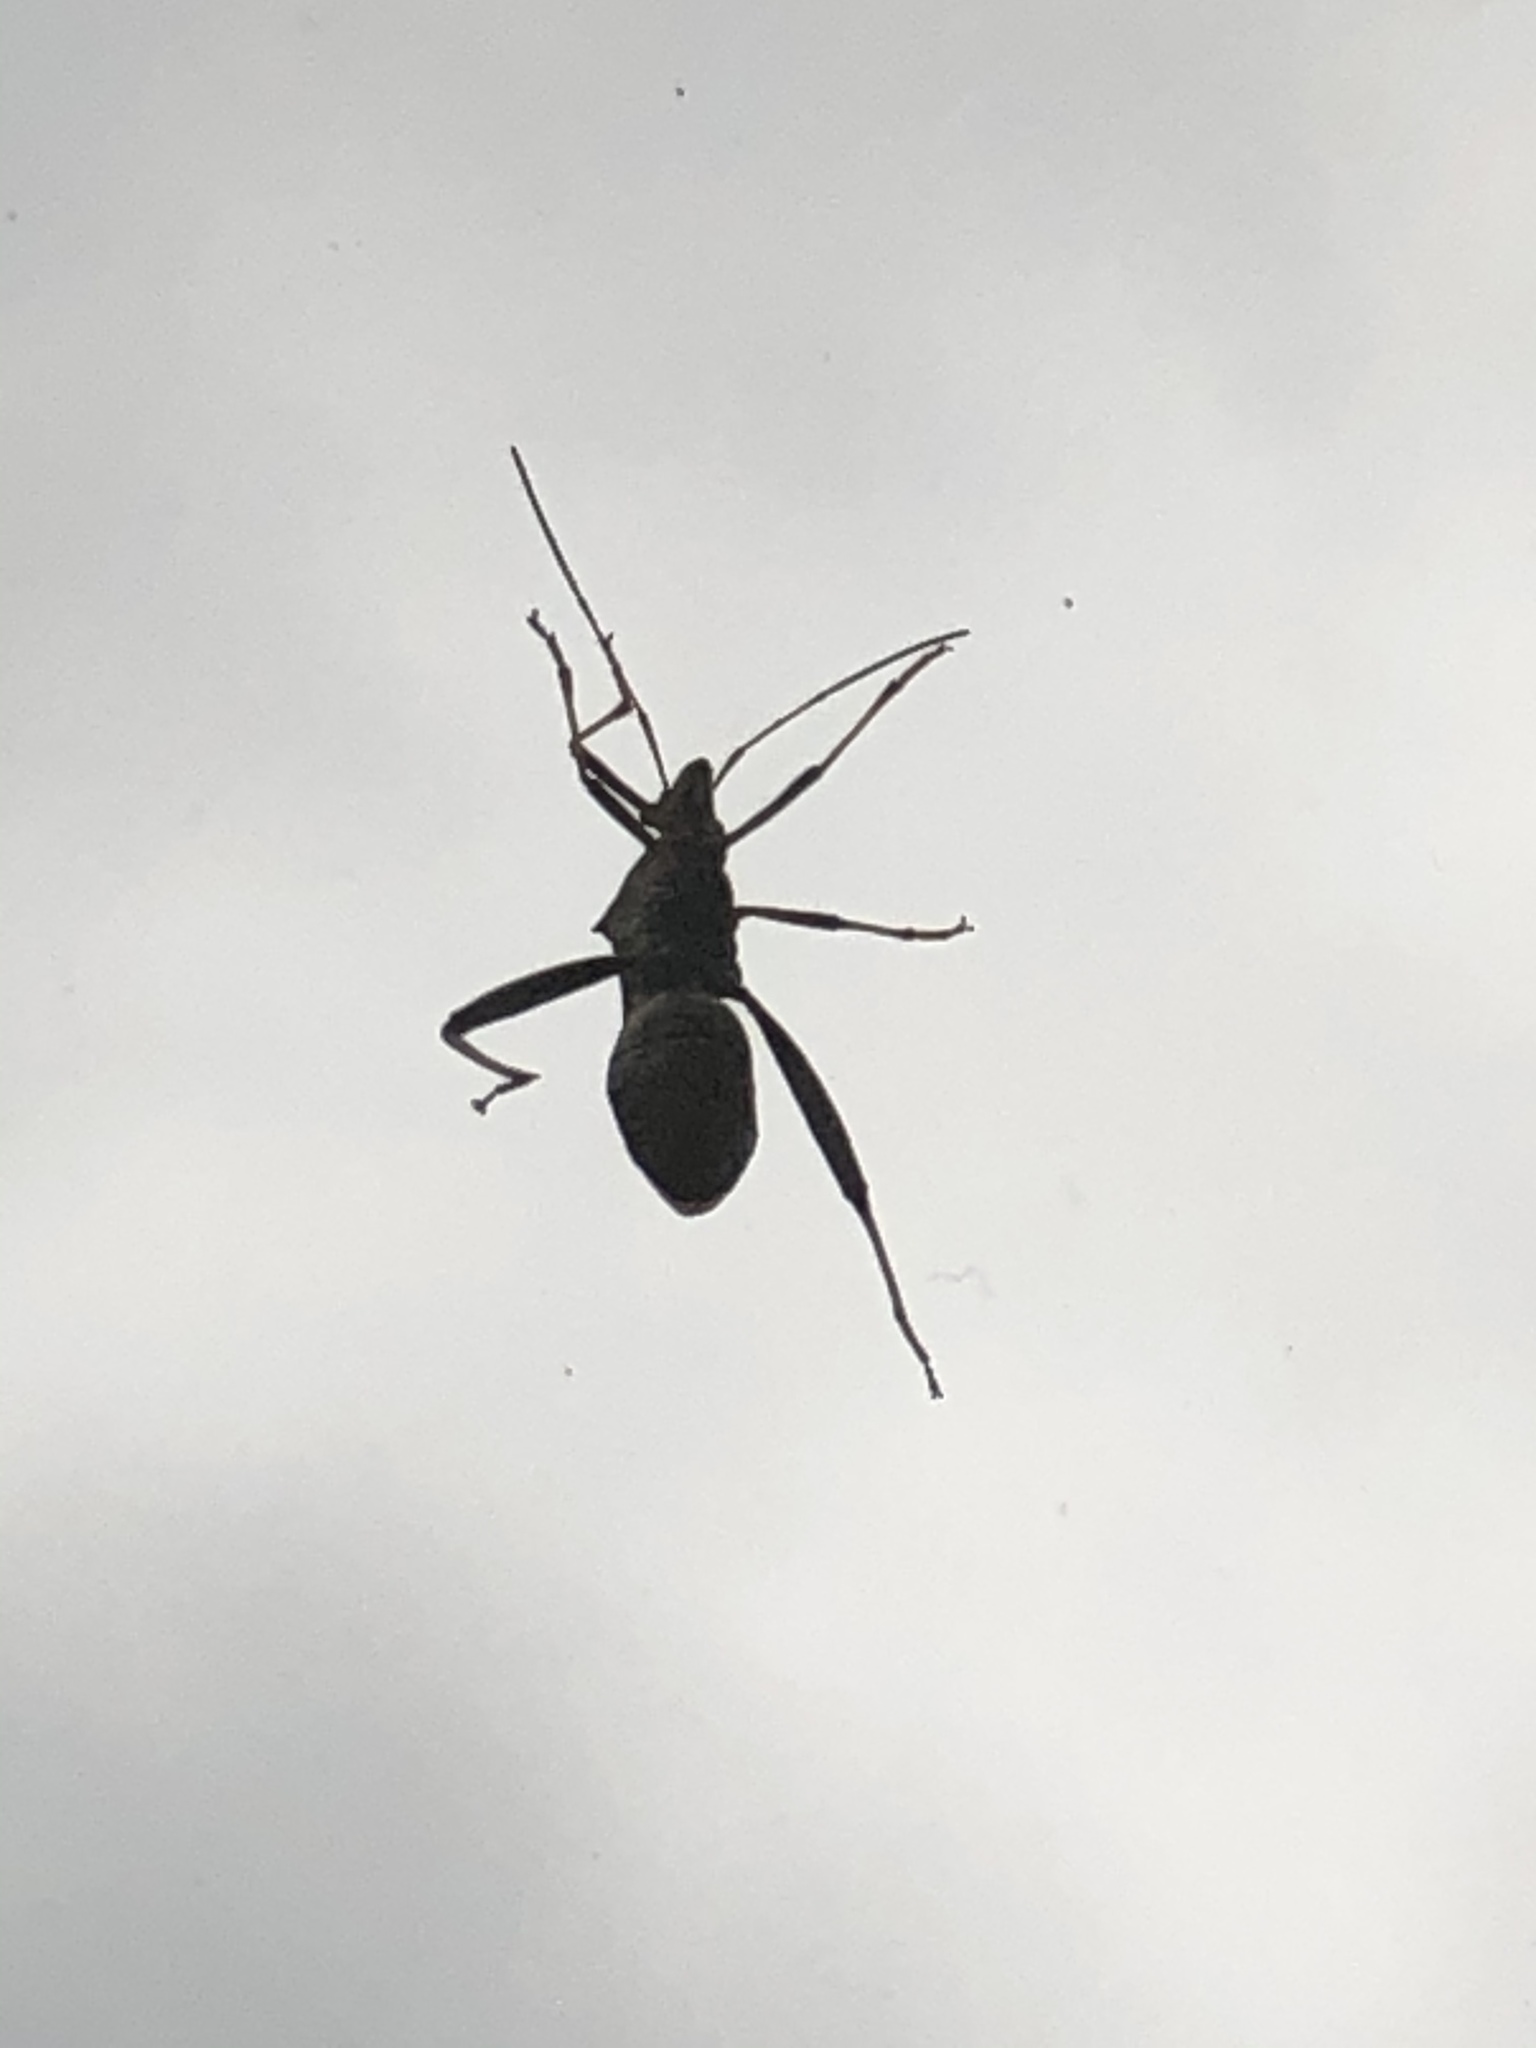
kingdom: Animalia
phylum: Arthropoda
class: Insecta
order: Hemiptera
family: Alydidae
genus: Riptortus
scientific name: Riptortus pedestris
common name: Bean bug
